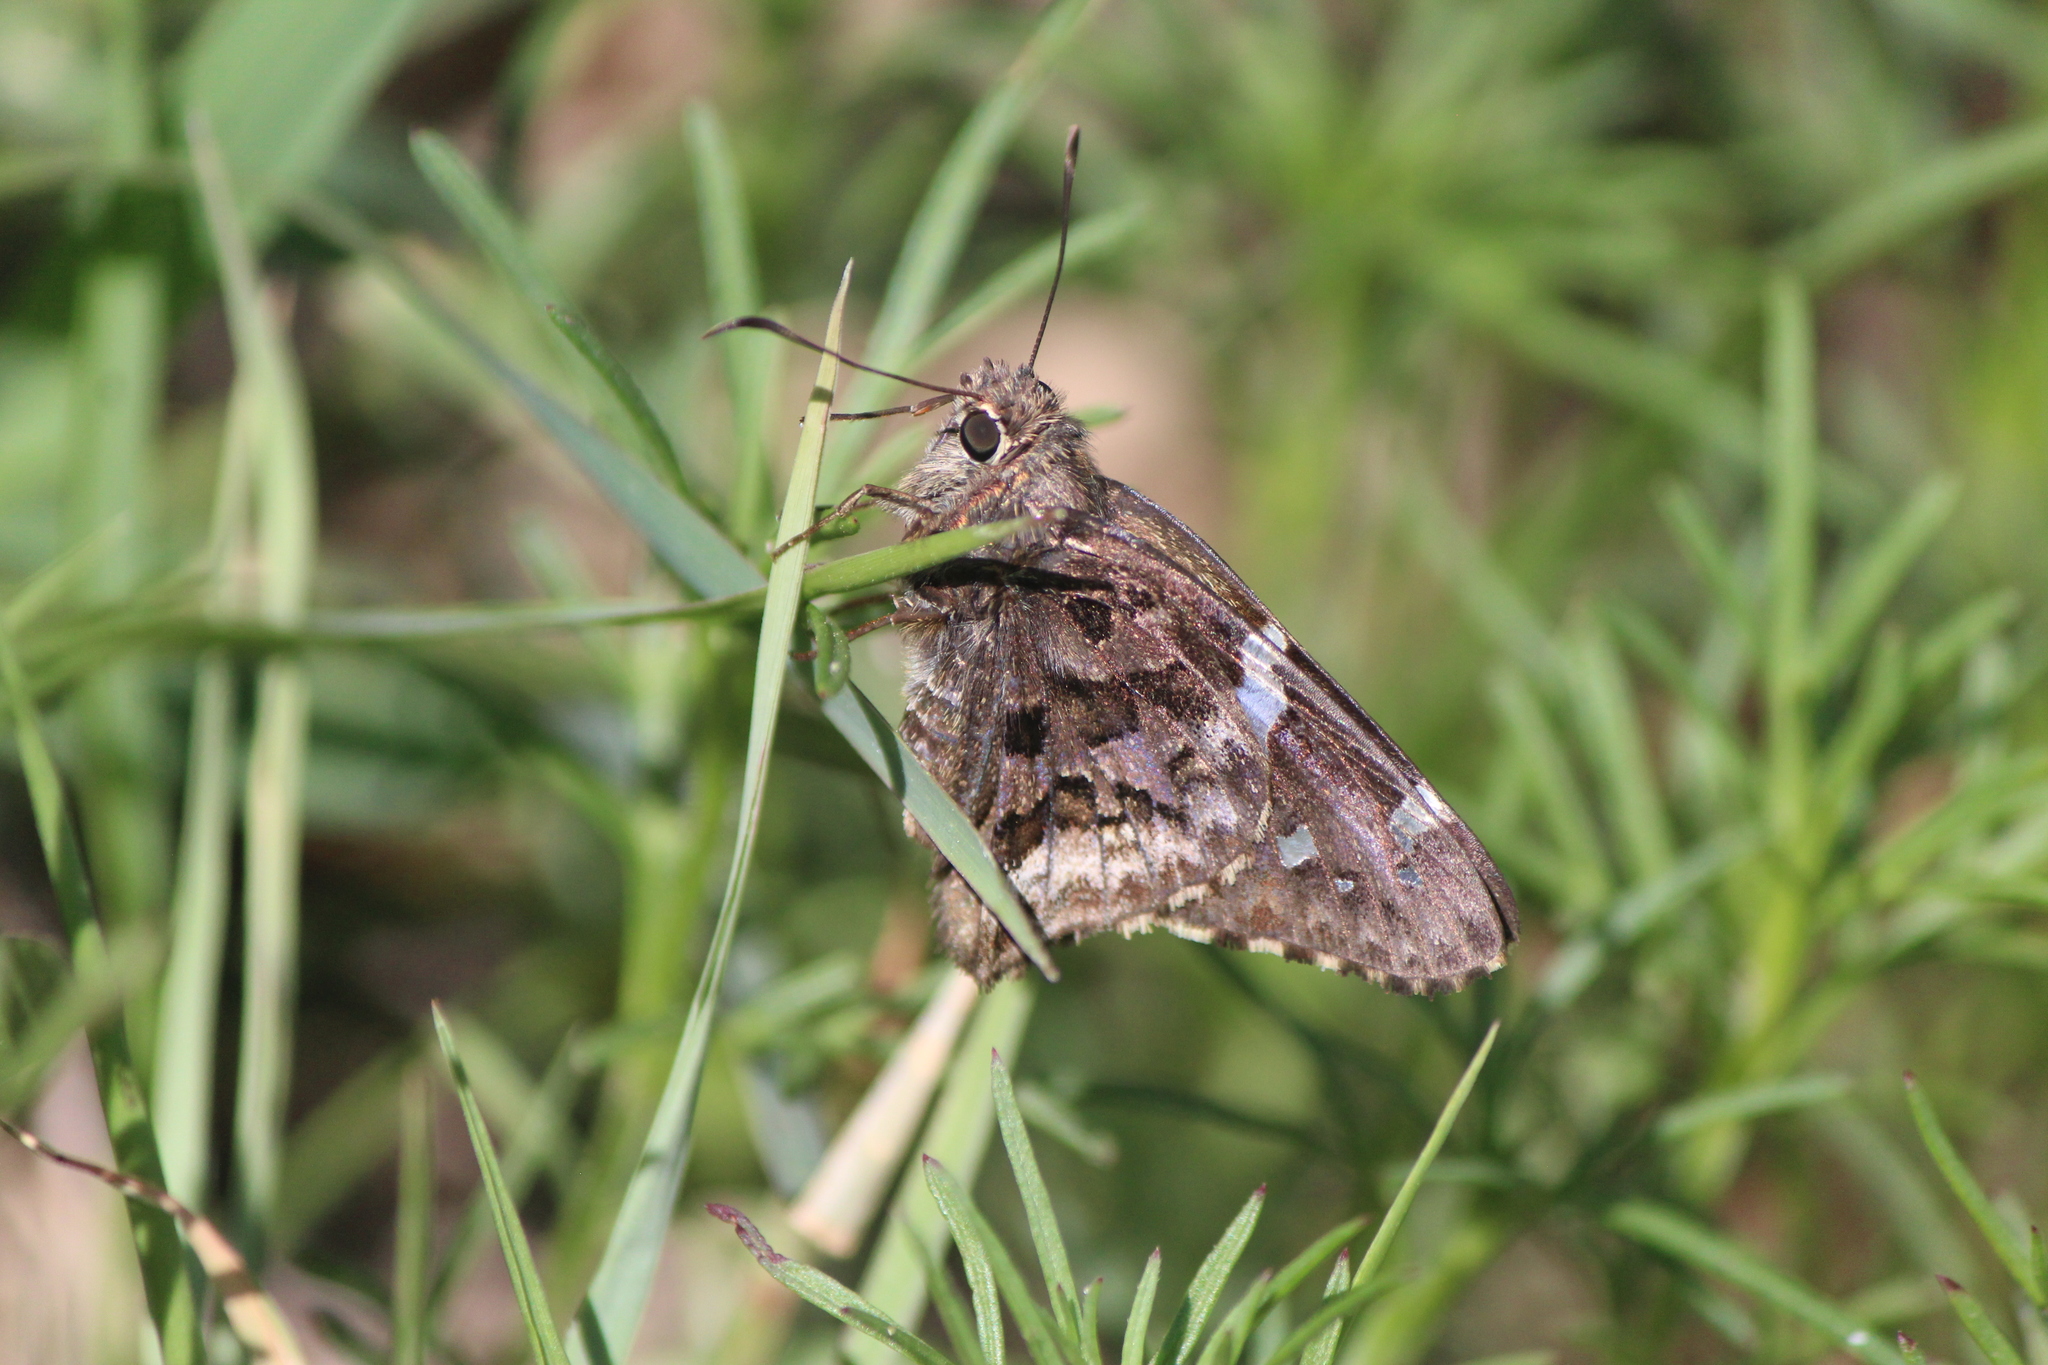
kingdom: Animalia
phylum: Arthropoda
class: Insecta
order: Lepidoptera
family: Hesperiidae
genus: Codatractus
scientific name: Codatractus bryaxis
